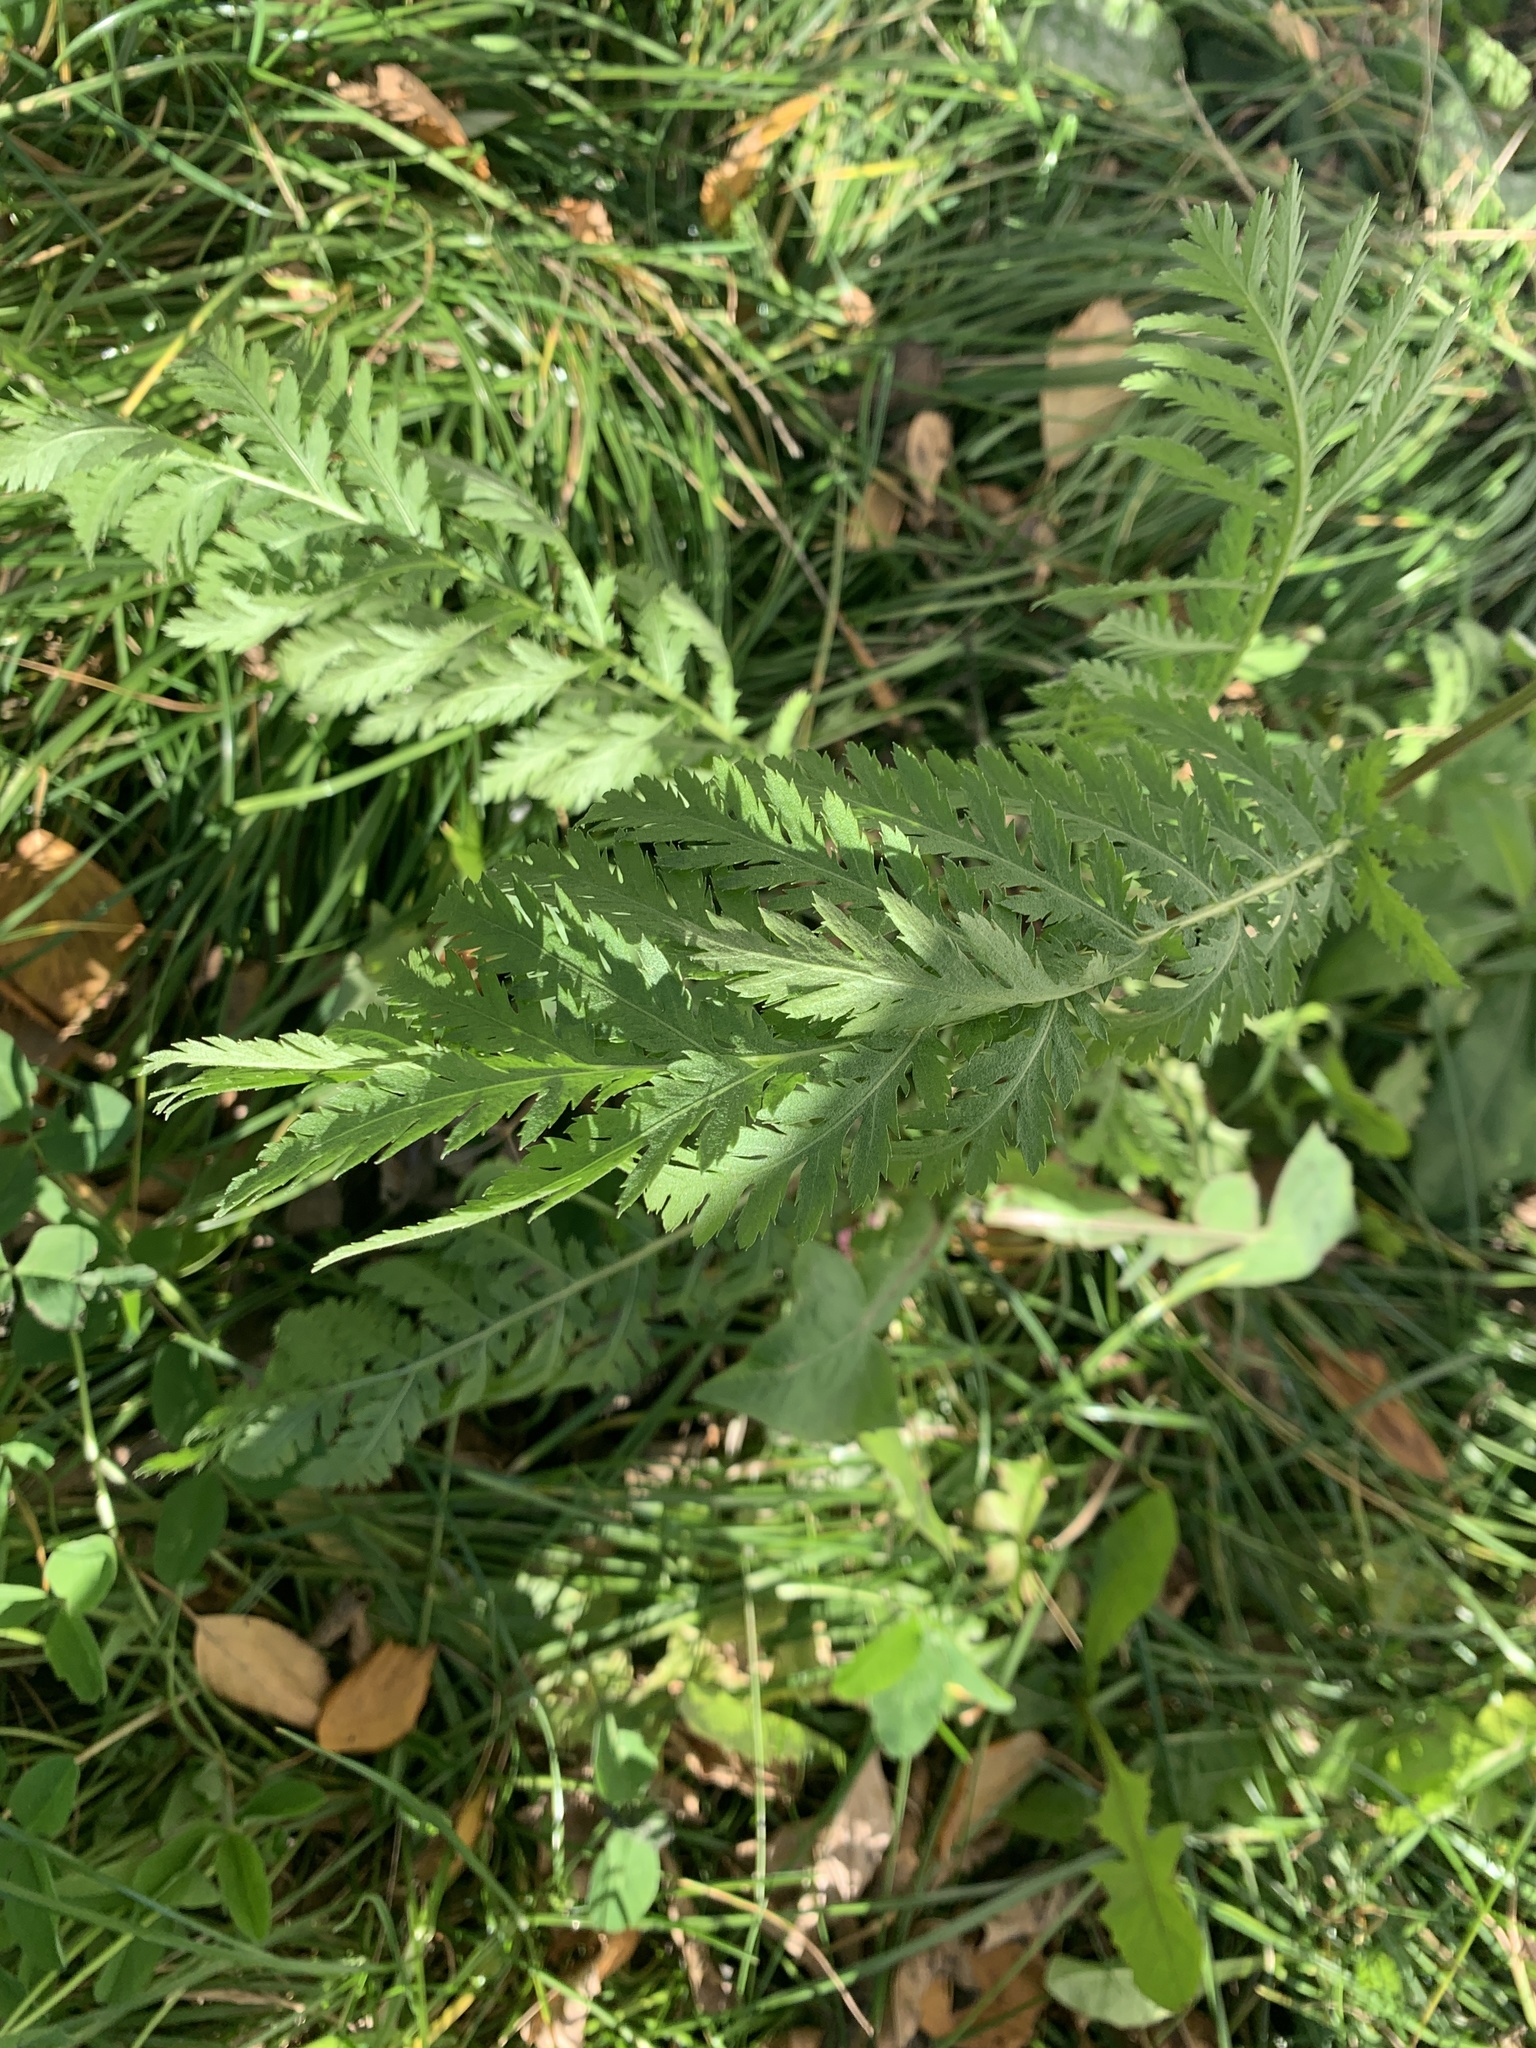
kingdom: Plantae
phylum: Tracheophyta
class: Magnoliopsida
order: Asterales
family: Asteraceae
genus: Tanacetum
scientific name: Tanacetum vulgare
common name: Common tansy
